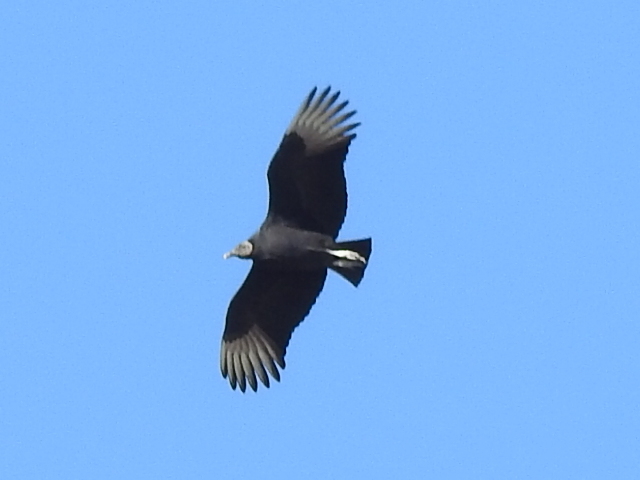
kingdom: Animalia
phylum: Chordata
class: Aves
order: Accipitriformes
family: Cathartidae
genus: Coragyps
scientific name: Coragyps atratus
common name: Black vulture
